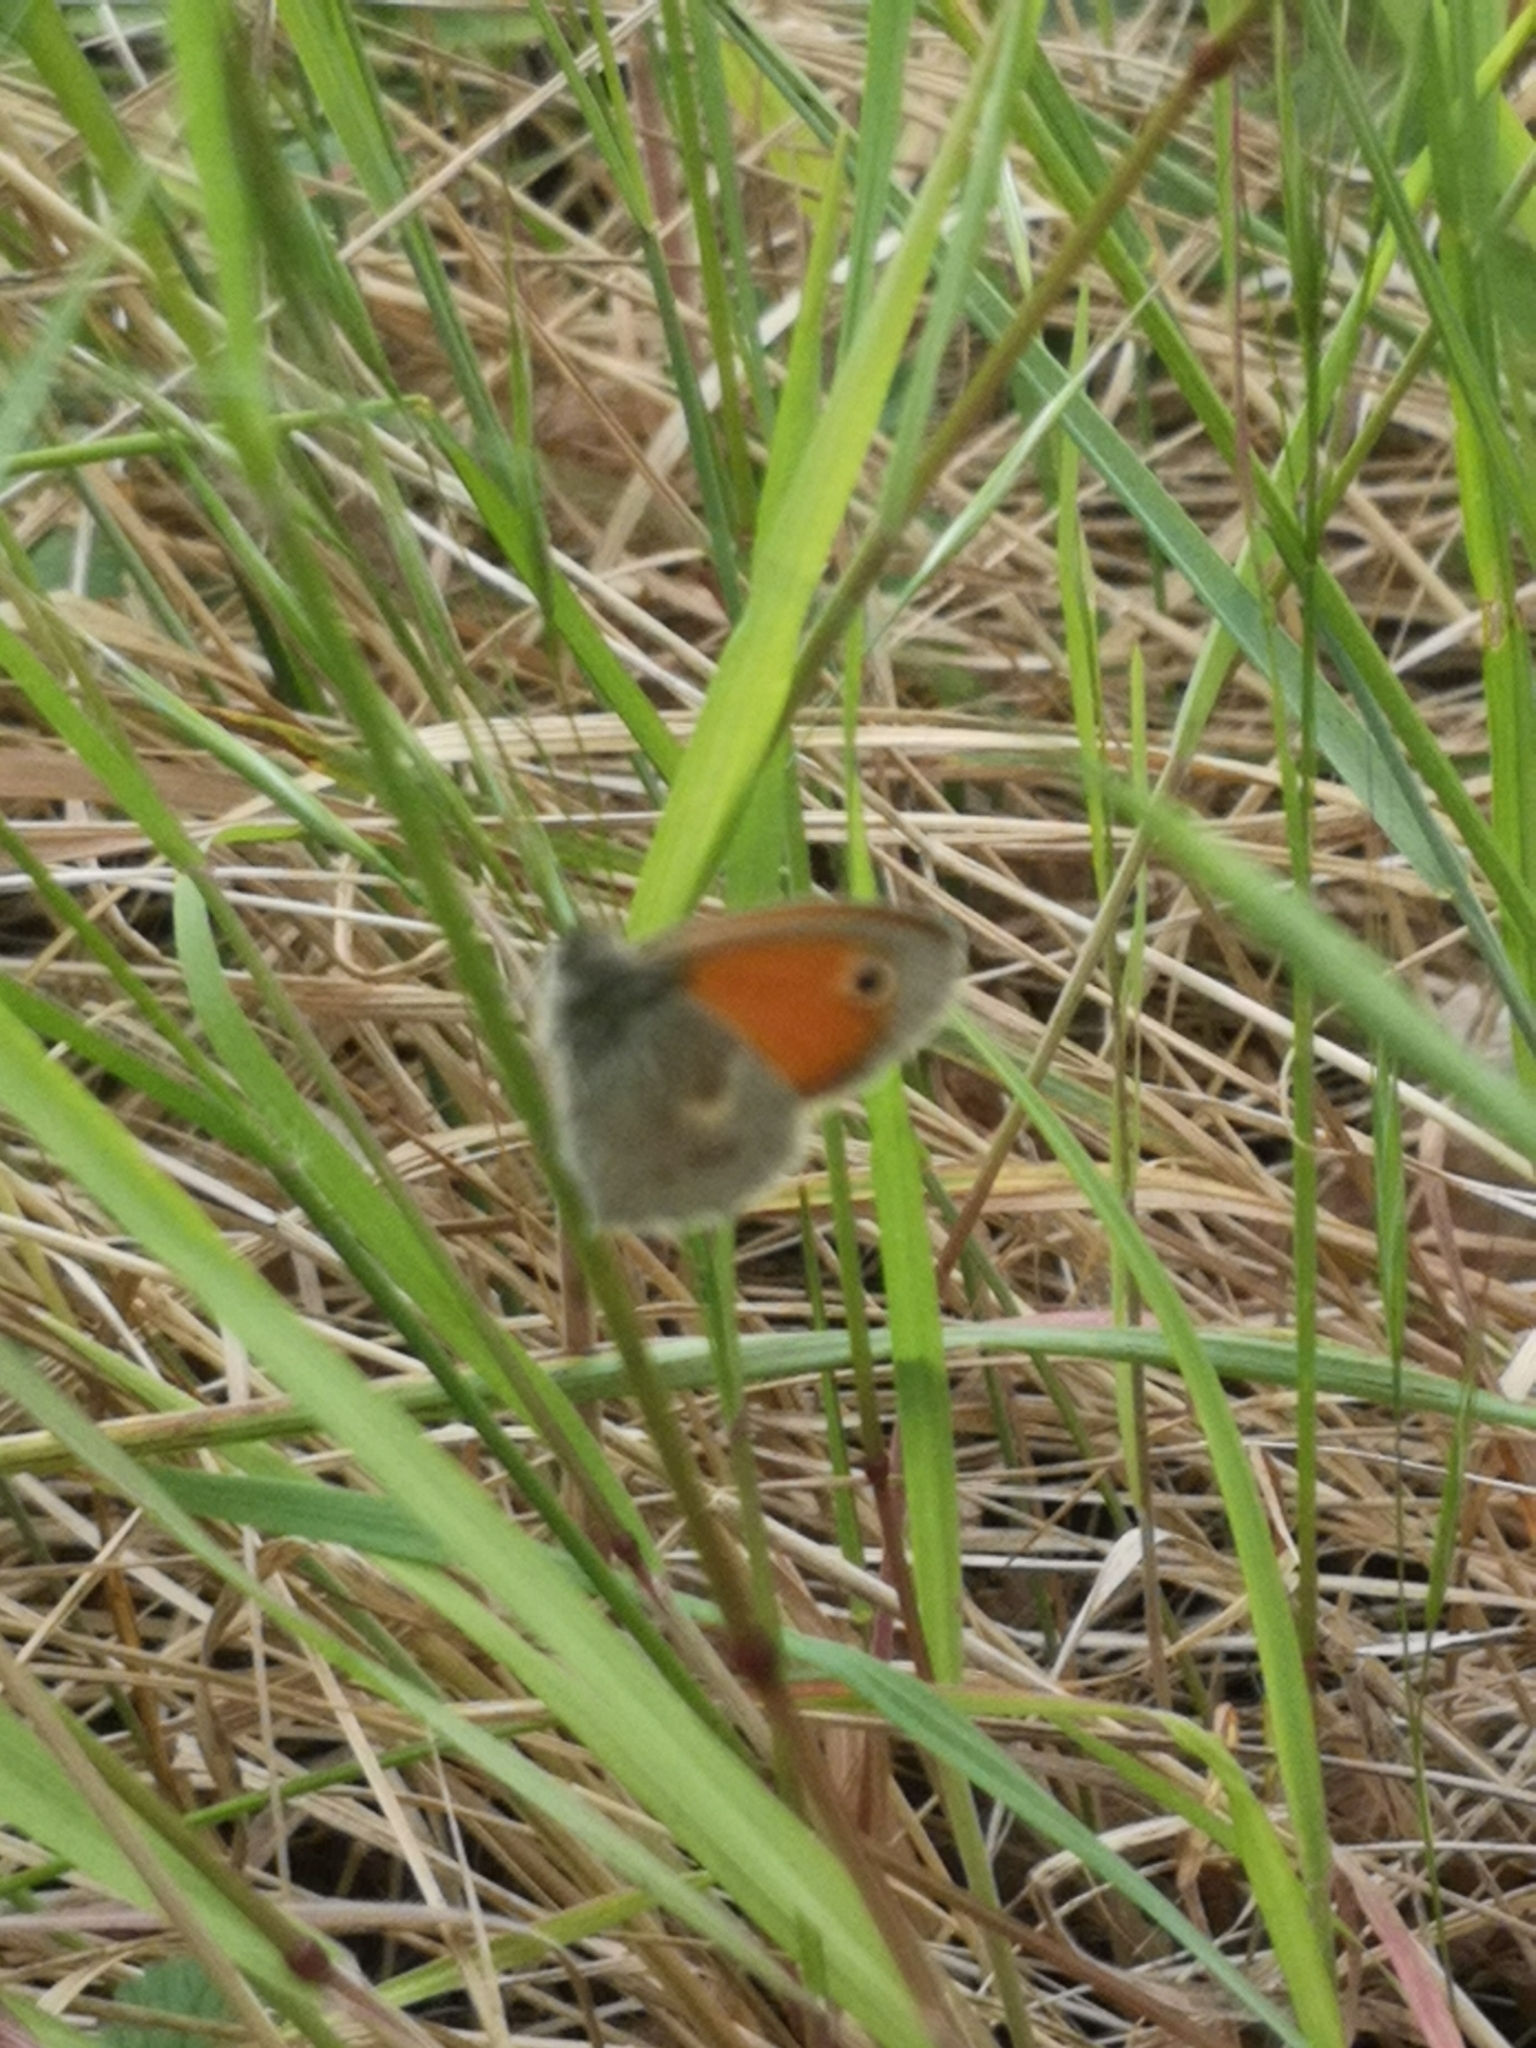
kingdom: Animalia
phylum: Arthropoda
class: Insecta
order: Lepidoptera
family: Nymphalidae
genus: Coenonympha
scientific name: Coenonympha pamphilus
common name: Small heath
